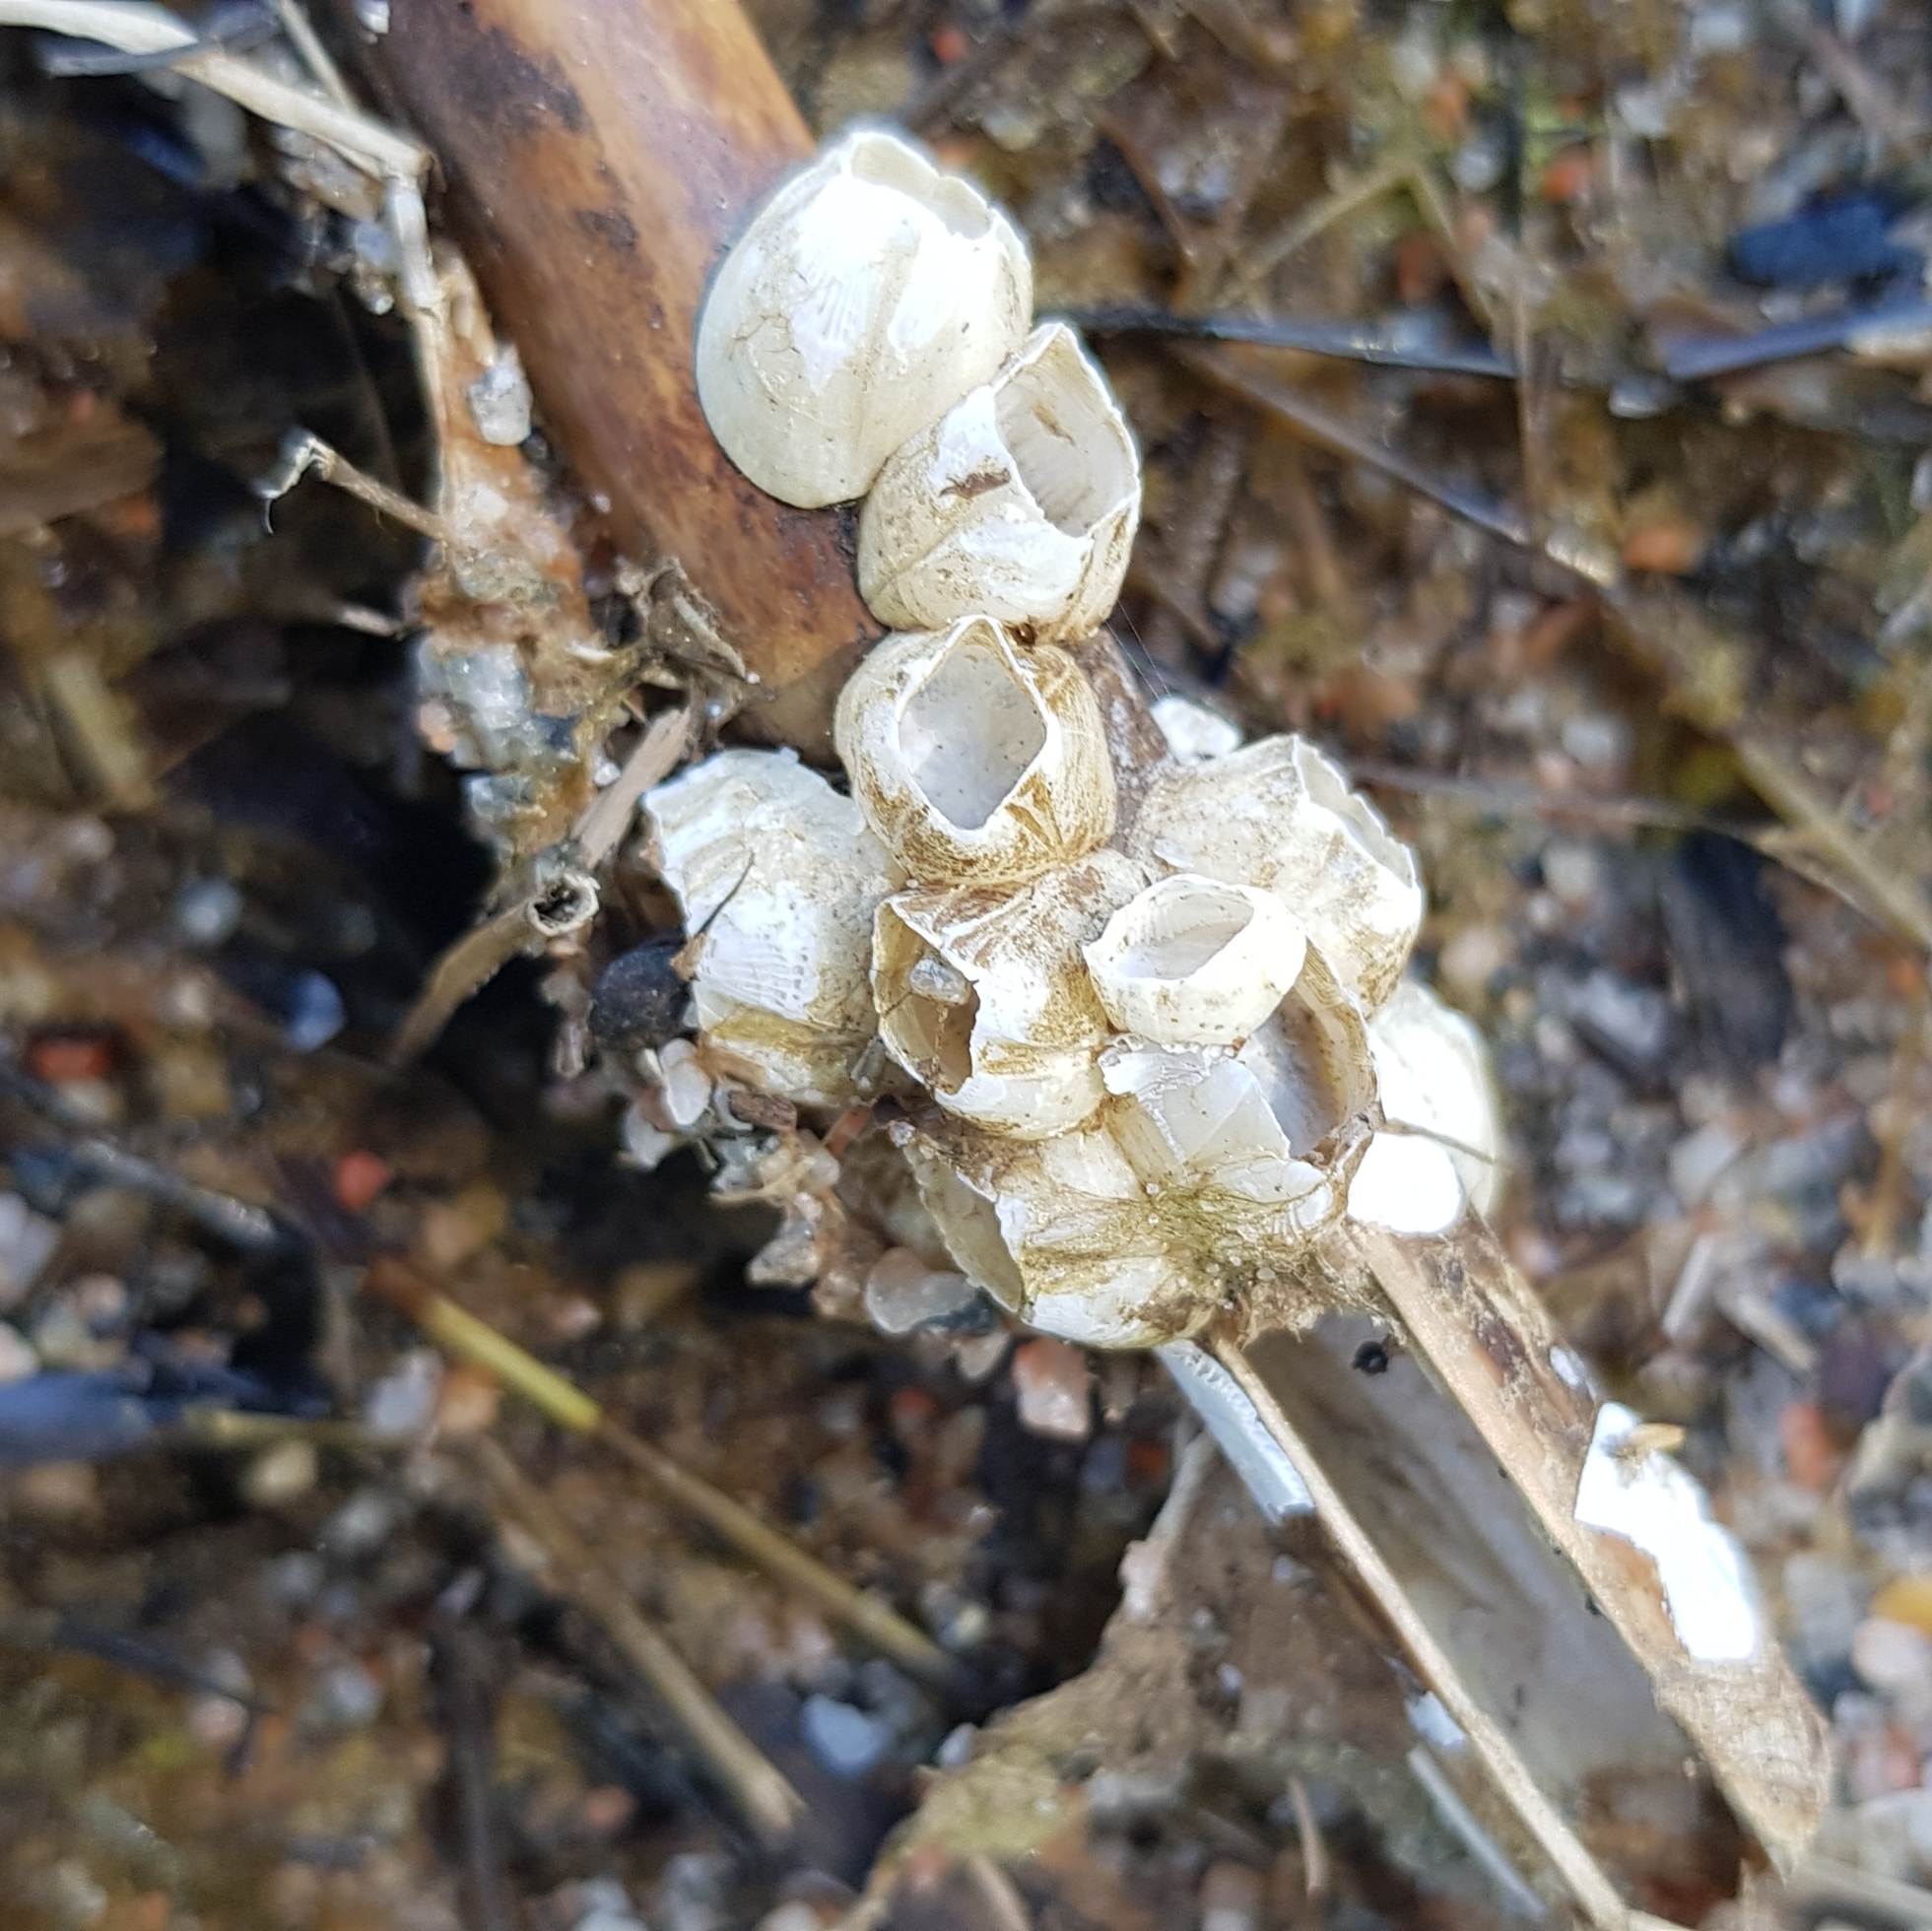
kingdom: Animalia
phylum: Arthropoda
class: Maxillopoda
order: Sessilia
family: Balanidae
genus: Amphibalanus
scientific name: Amphibalanus improvisus
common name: Bay barnacle
